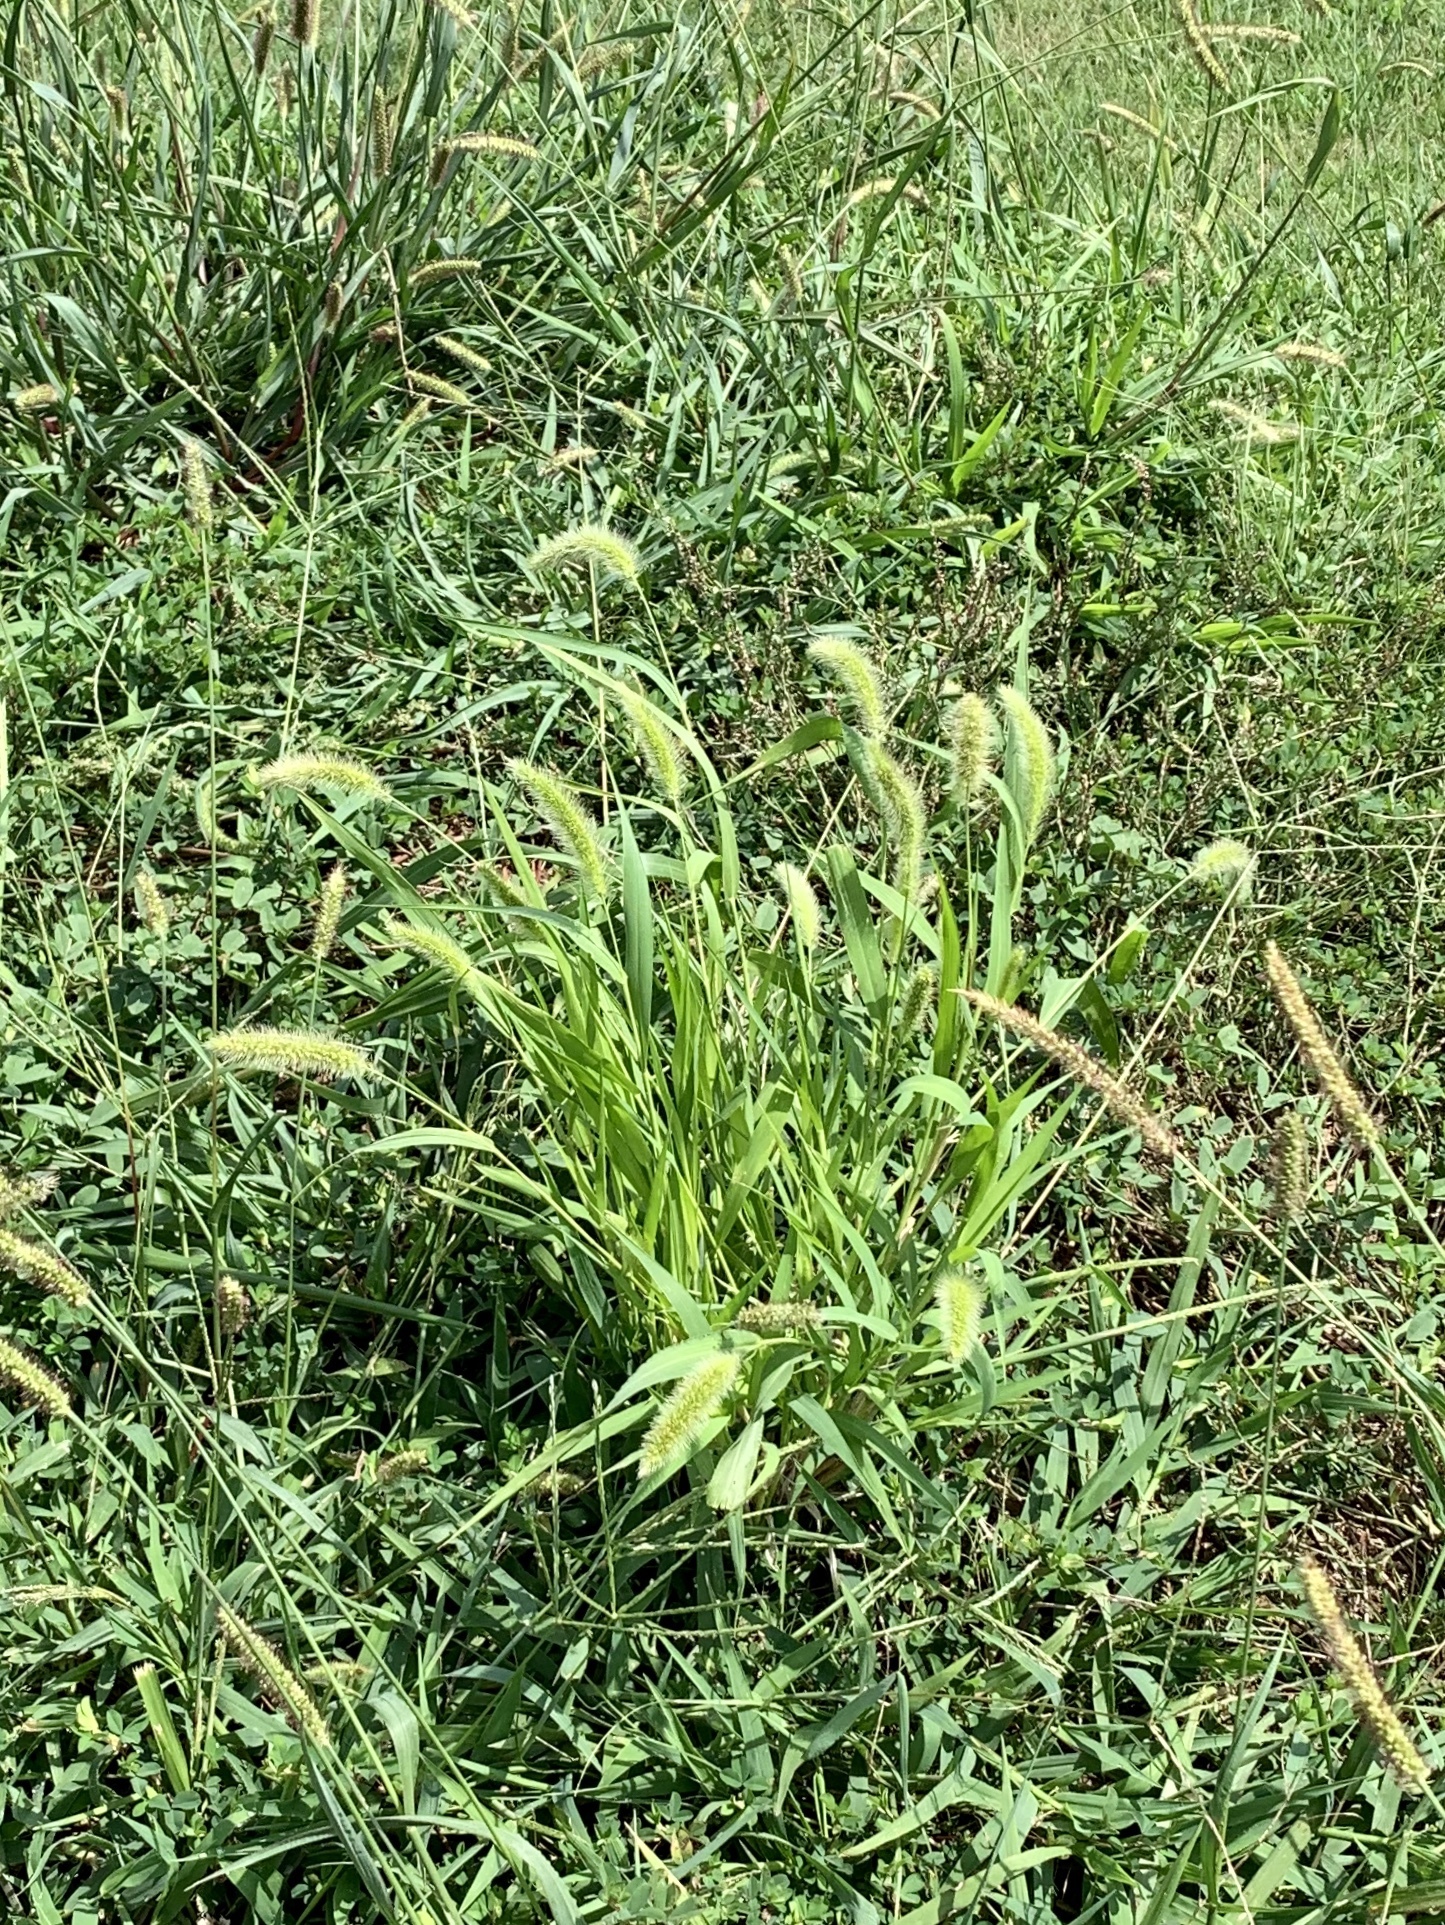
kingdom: Plantae
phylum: Tracheophyta
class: Liliopsida
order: Poales
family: Poaceae
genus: Setaria
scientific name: Setaria viridis
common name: Green bristlegrass
